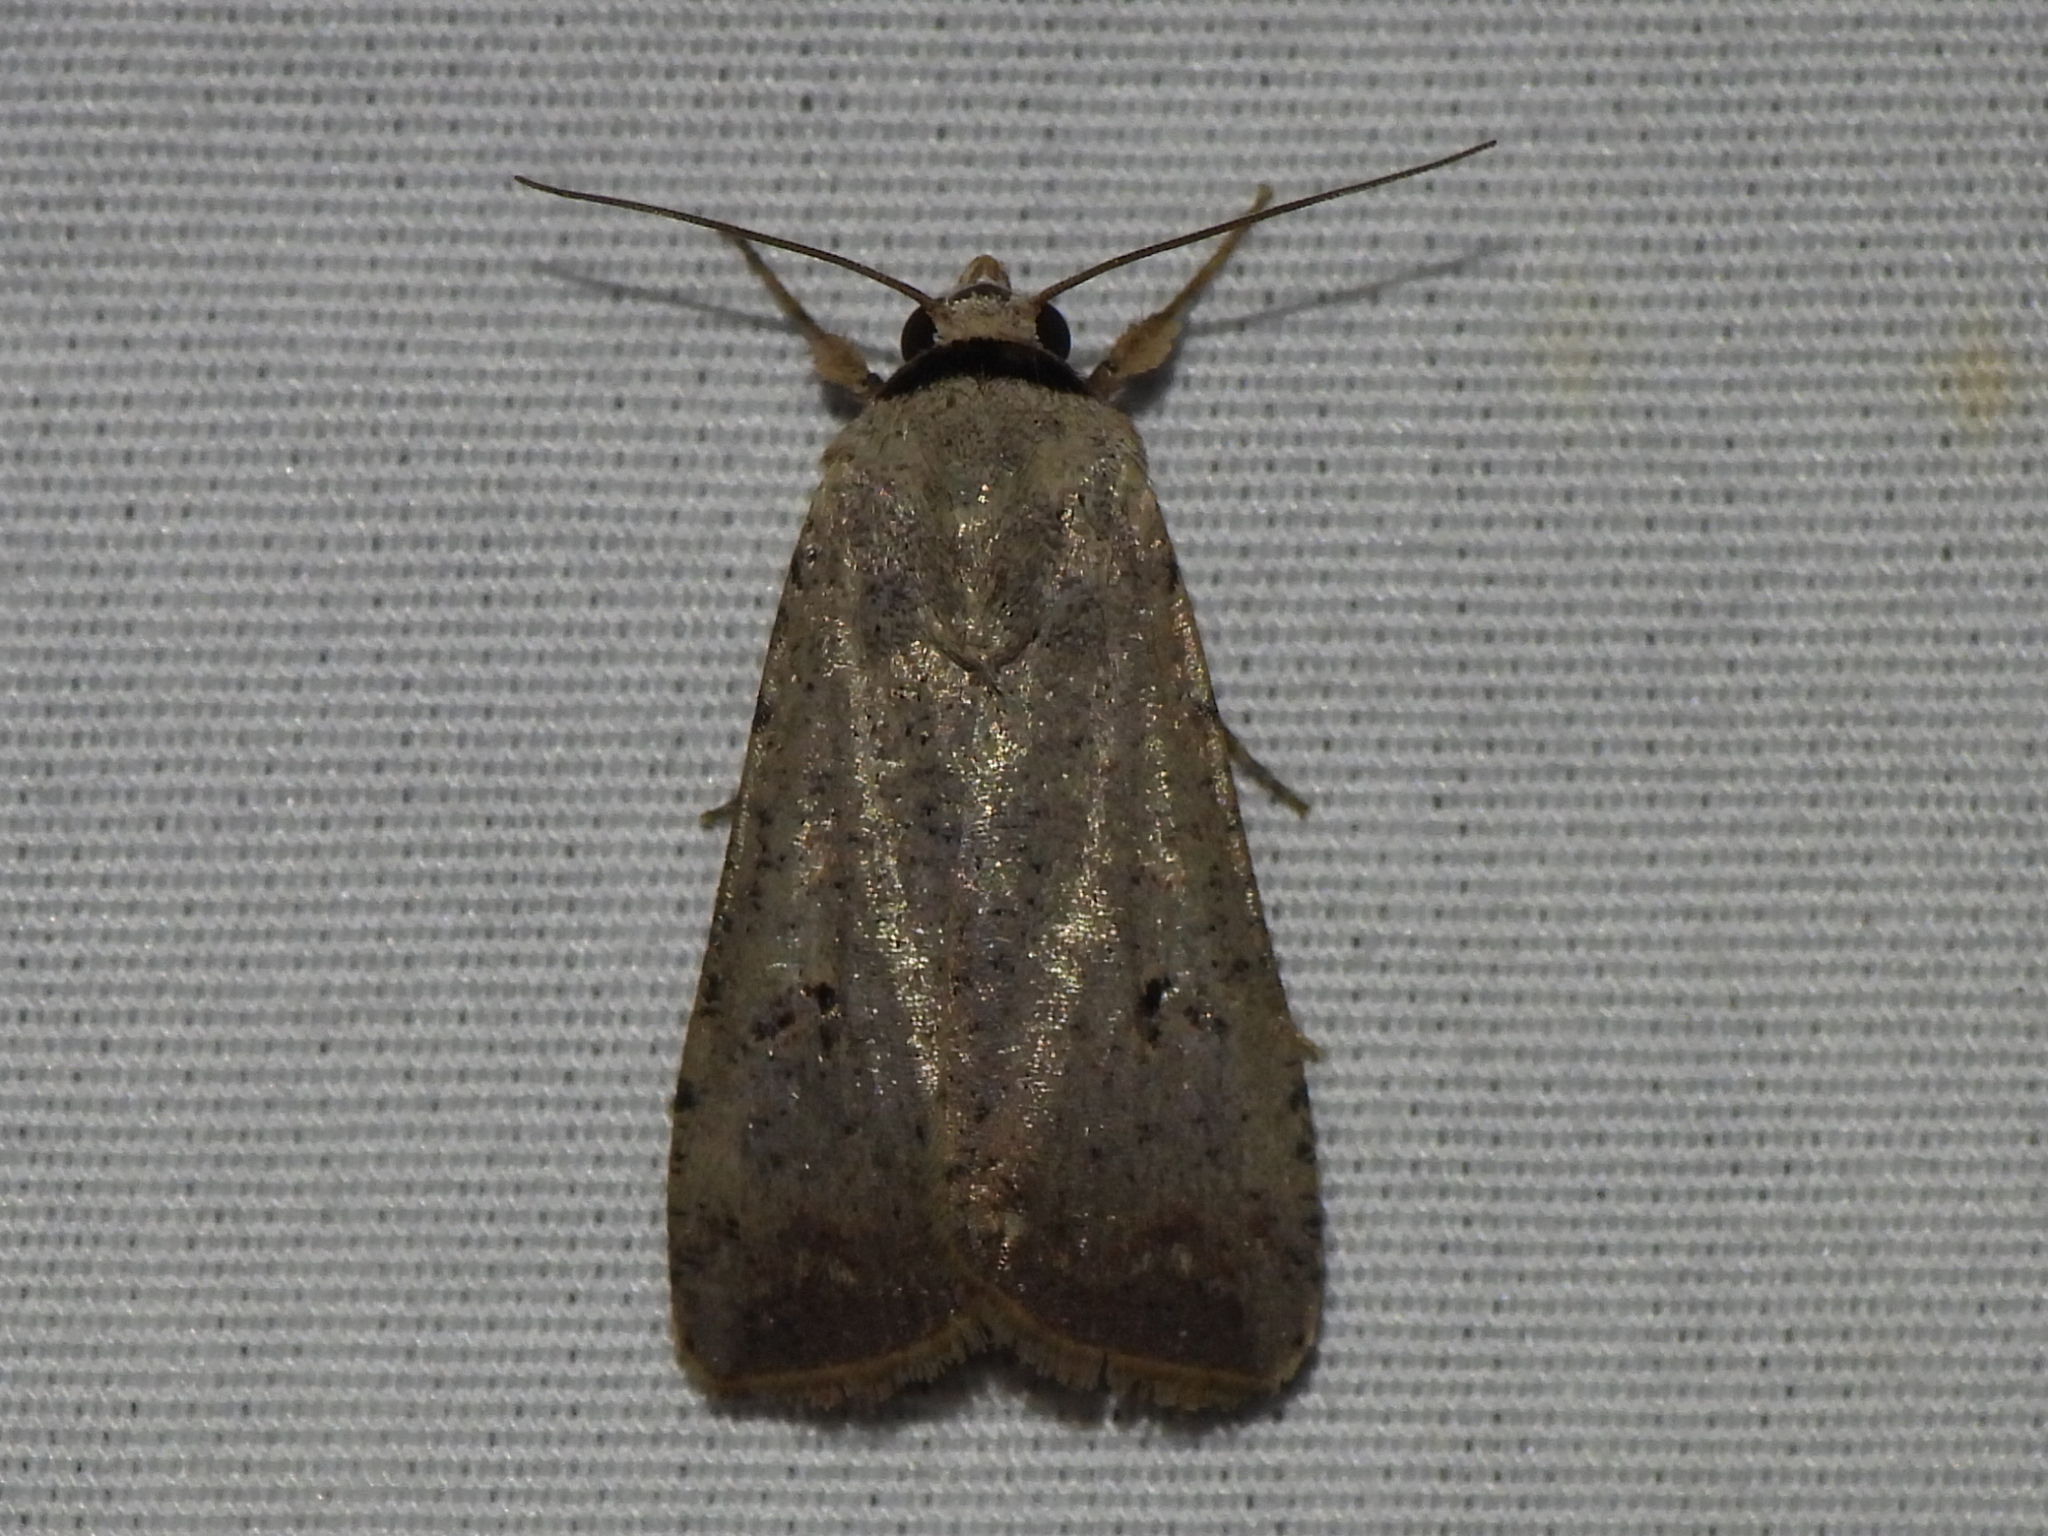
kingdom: Animalia
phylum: Arthropoda
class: Insecta
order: Lepidoptera
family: Noctuidae
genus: Anicla
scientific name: Anicla infecta
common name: Green cutworm
